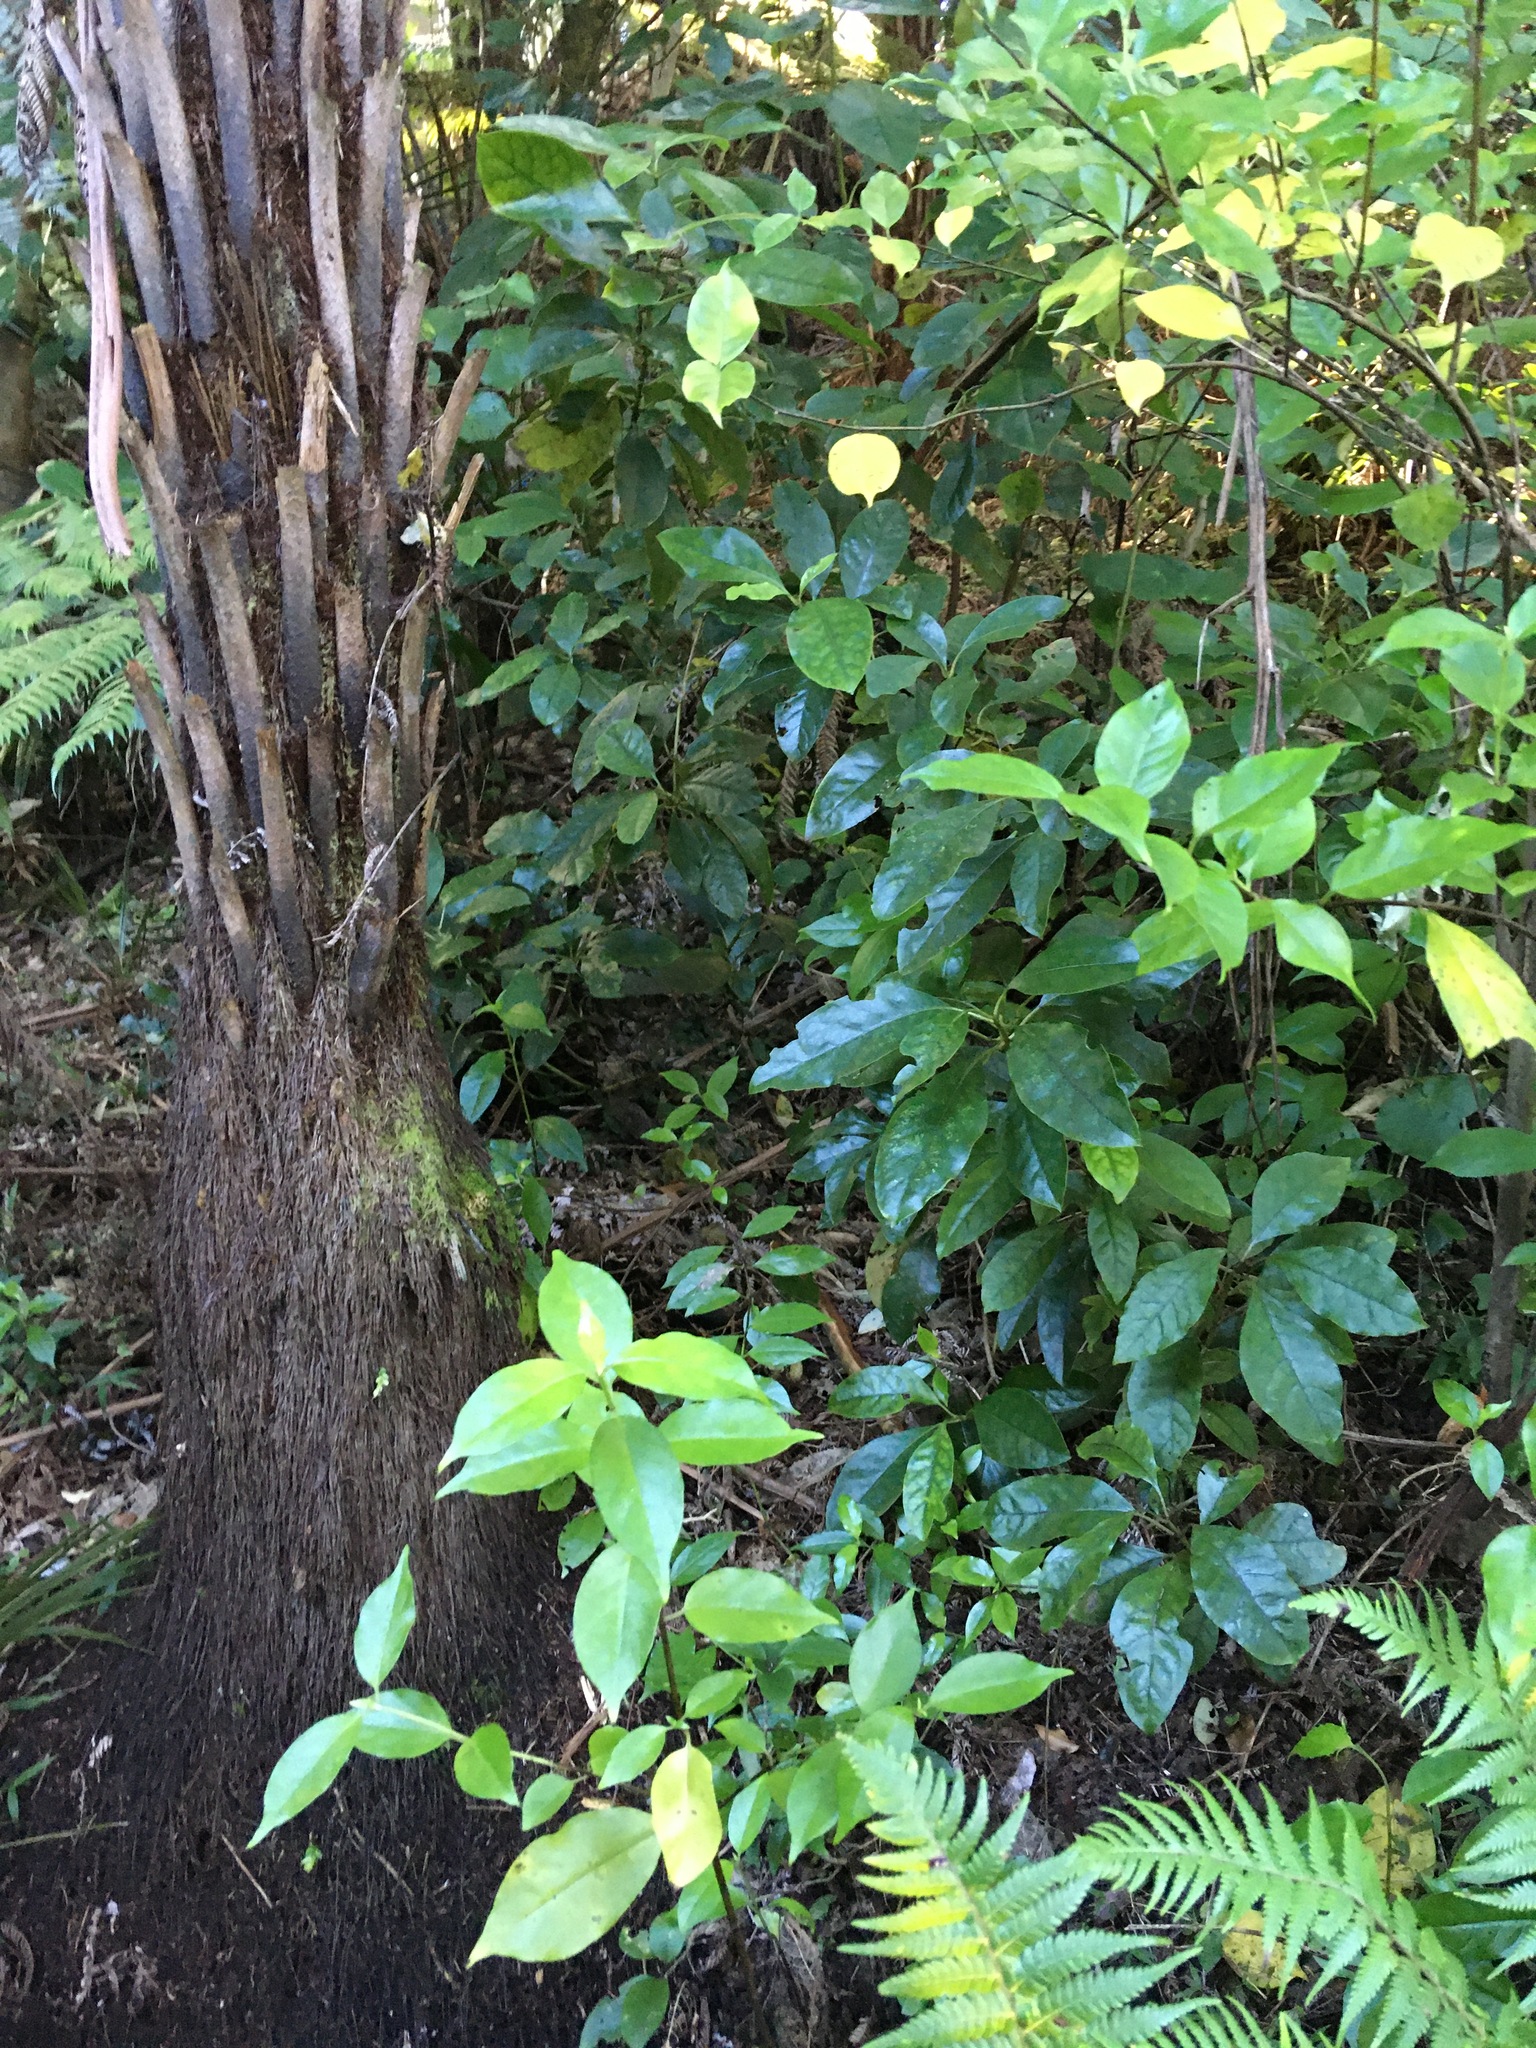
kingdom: Plantae
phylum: Tracheophyta
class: Magnoliopsida
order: Gentianales
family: Rubiaceae
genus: Coprosma
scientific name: Coprosma autumnalis
